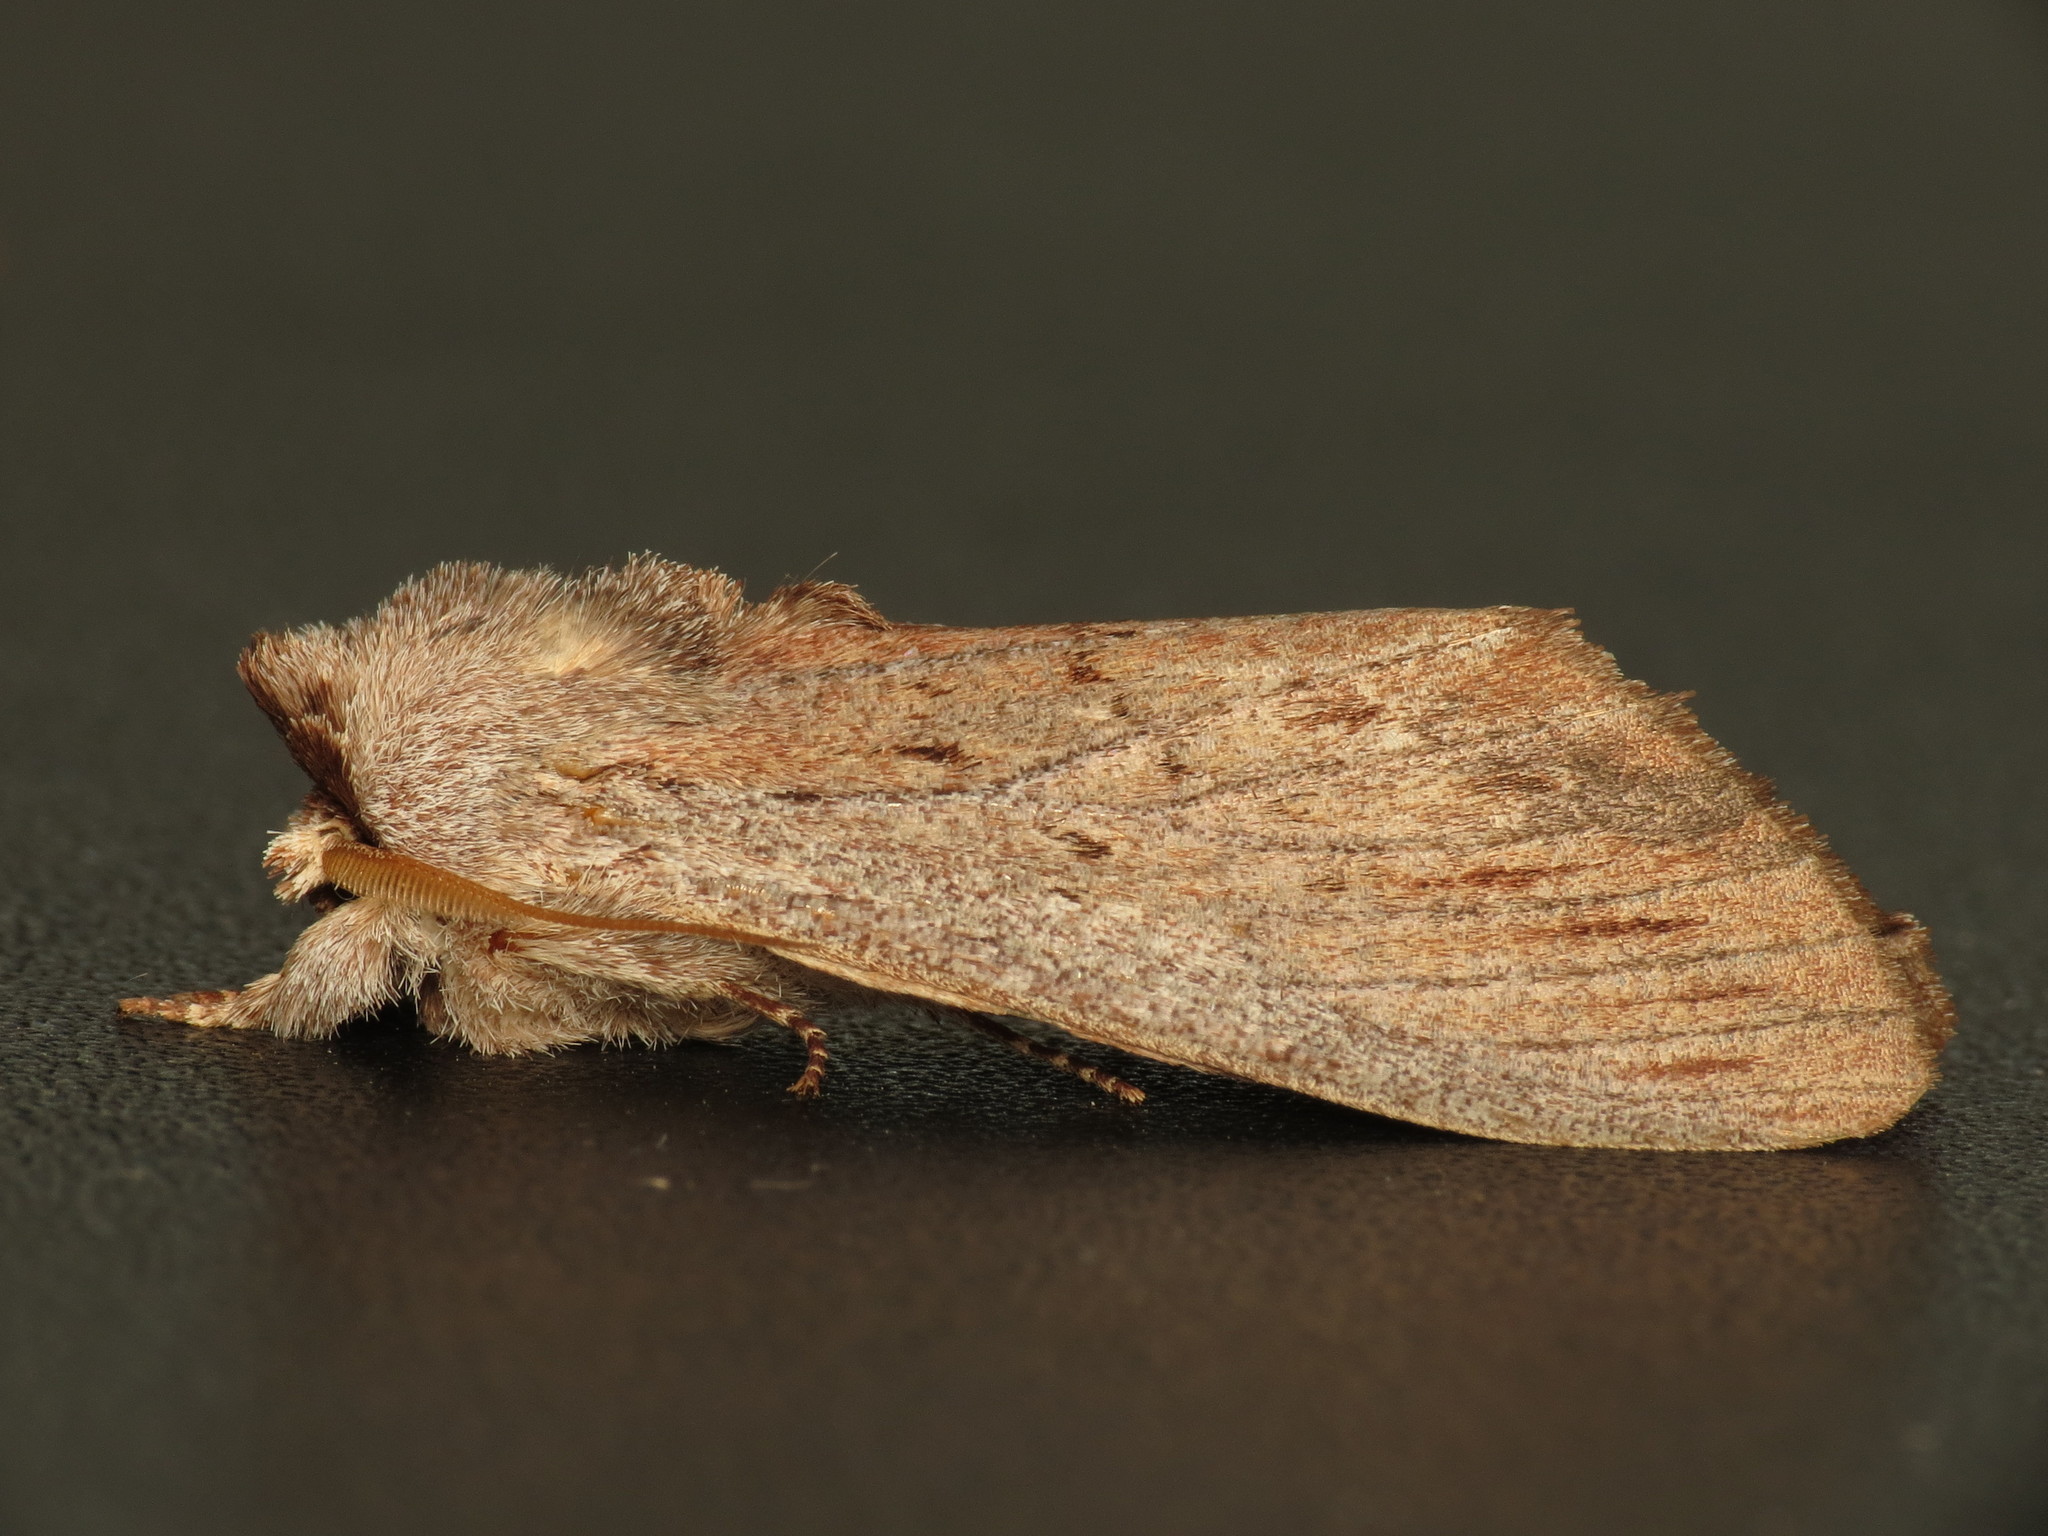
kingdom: Animalia
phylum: Arthropoda
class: Insecta
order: Lepidoptera
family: Notodontidae
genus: Destolmia
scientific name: Destolmia lineata
